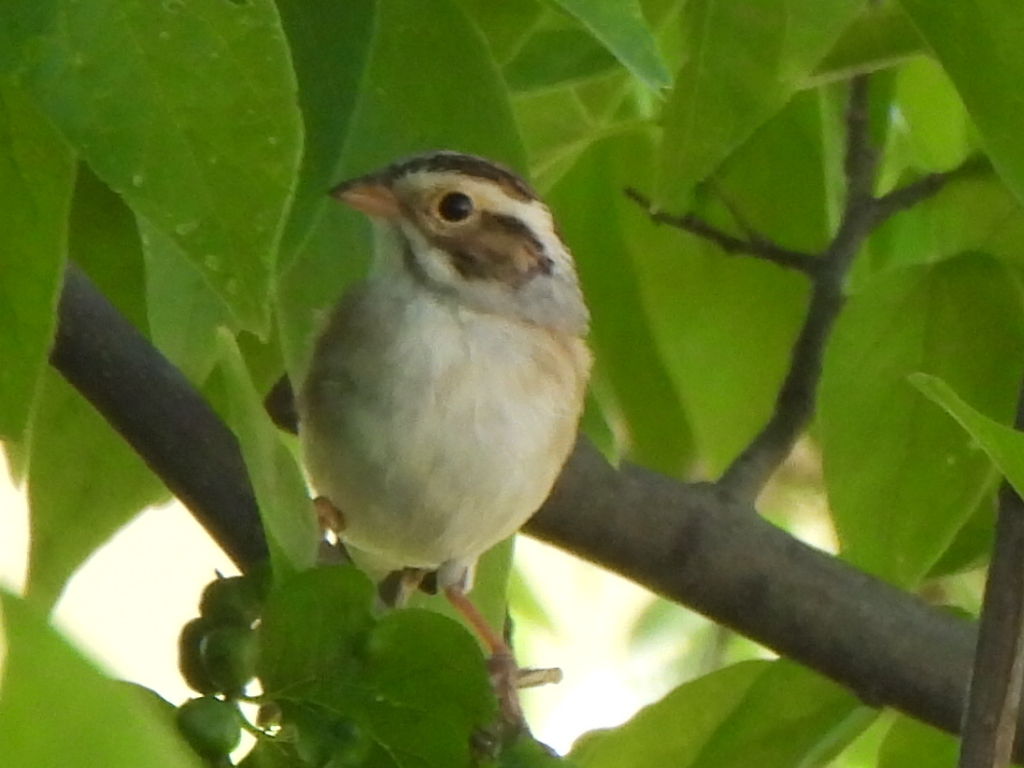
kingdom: Animalia
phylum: Chordata
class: Aves
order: Passeriformes
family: Passerellidae
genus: Spizella
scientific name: Spizella pallida
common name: Clay-colored sparrow
